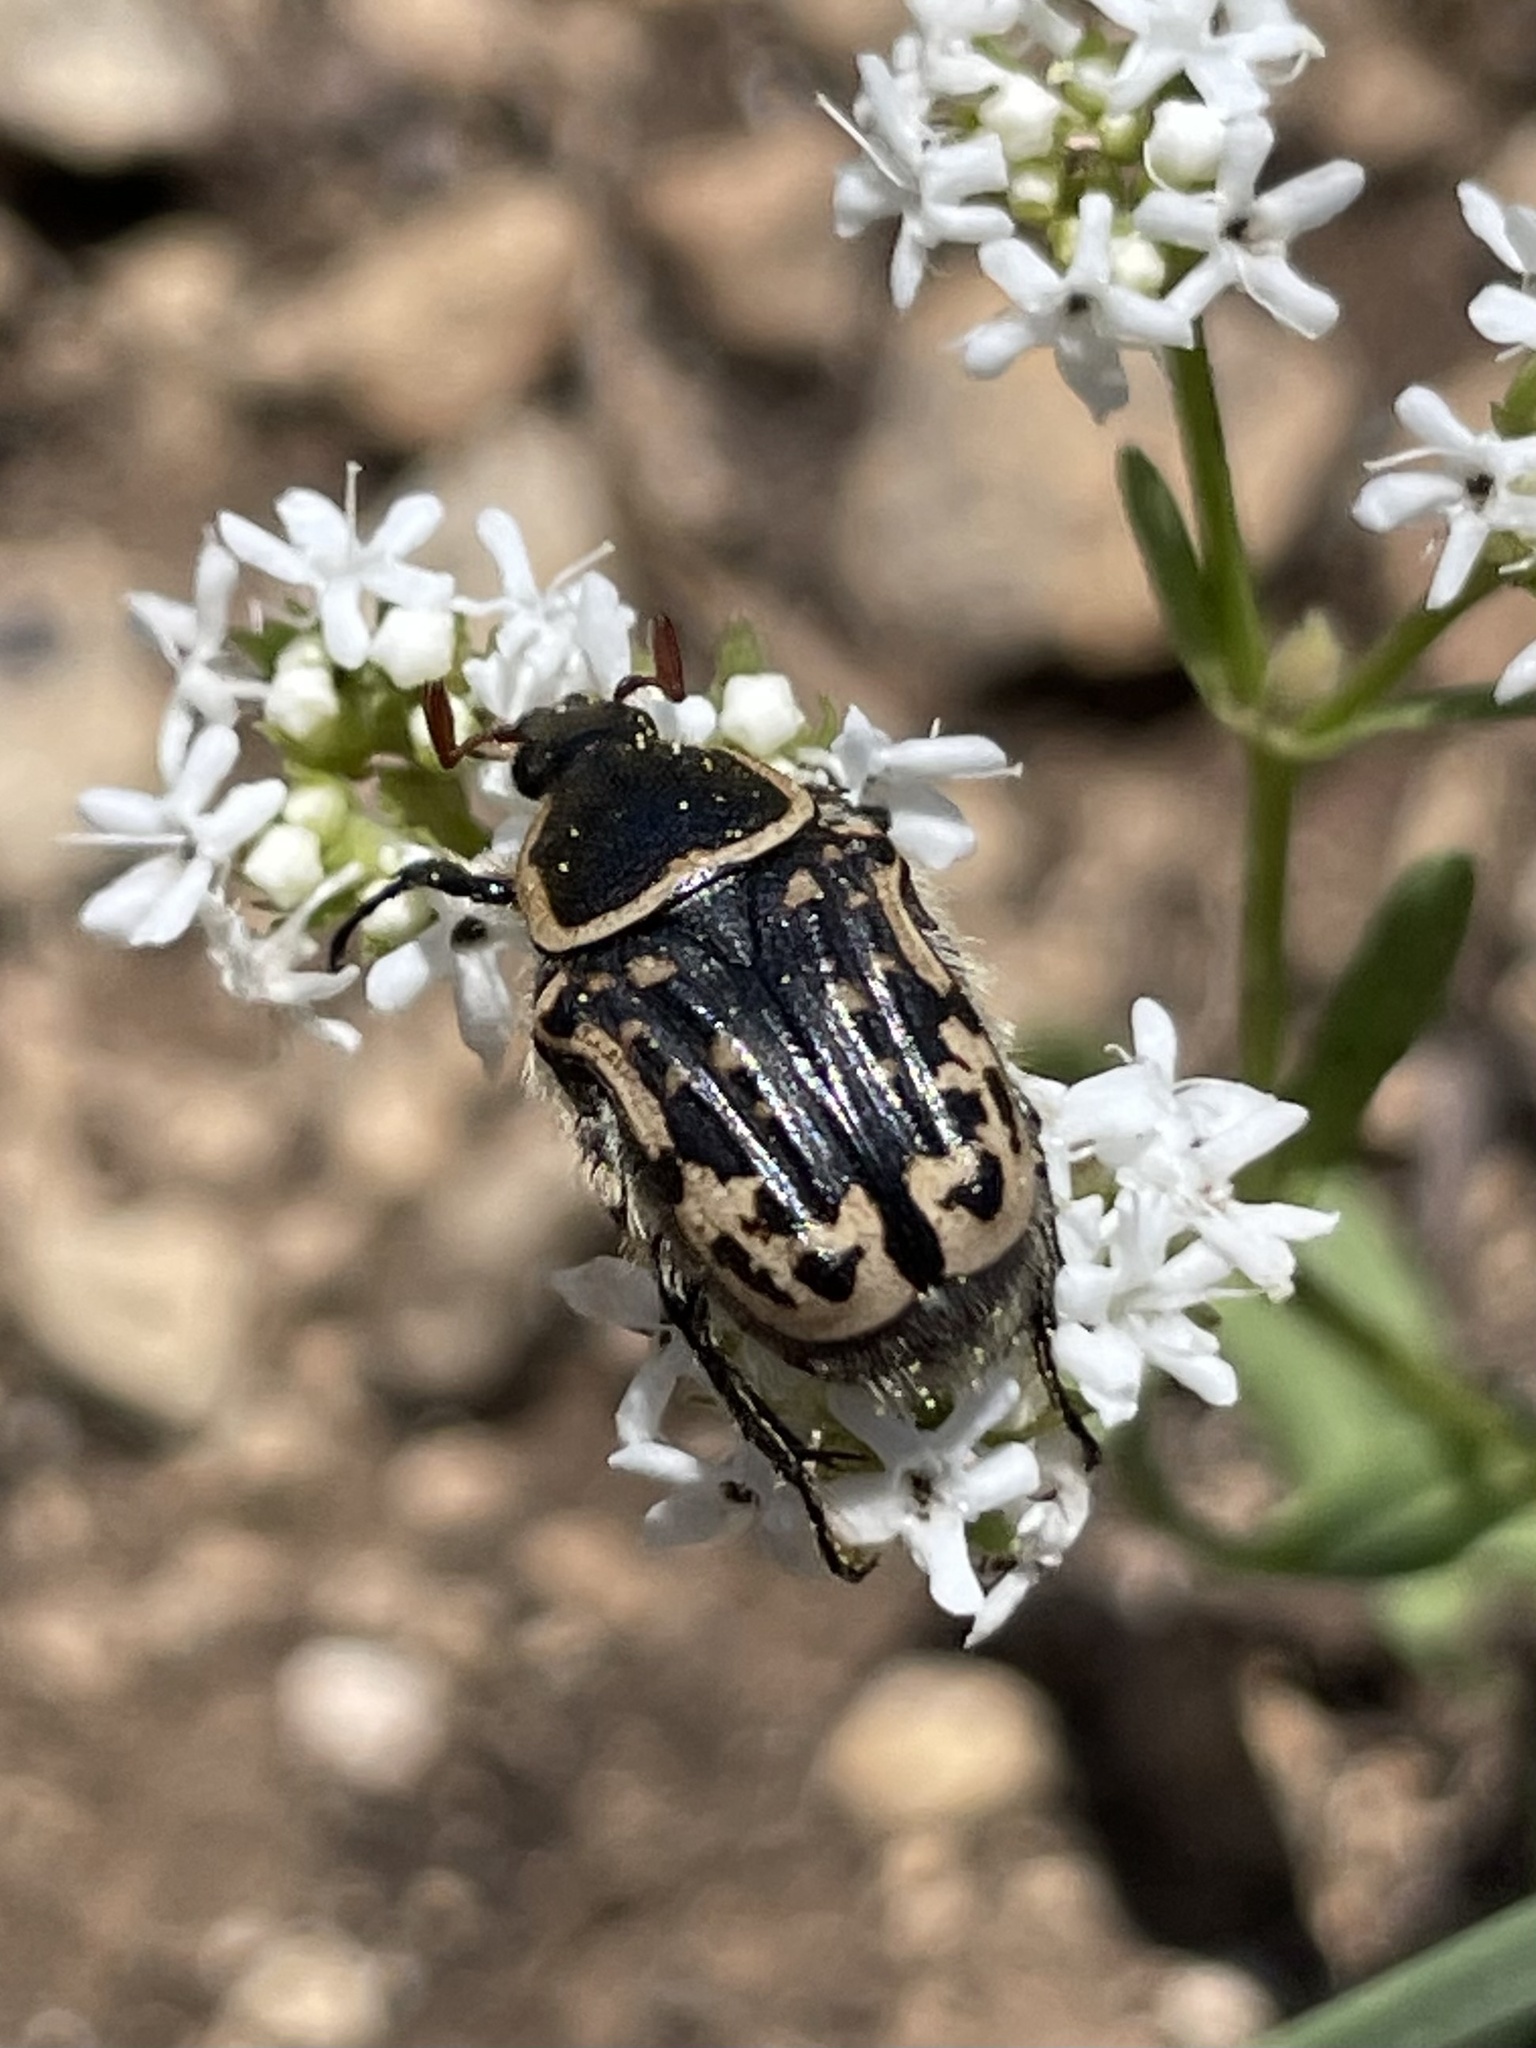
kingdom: Animalia
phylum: Arthropoda
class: Insecta
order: Coleoptera
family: Scarabaeidae
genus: Euphoria
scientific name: Euphoria kernii
